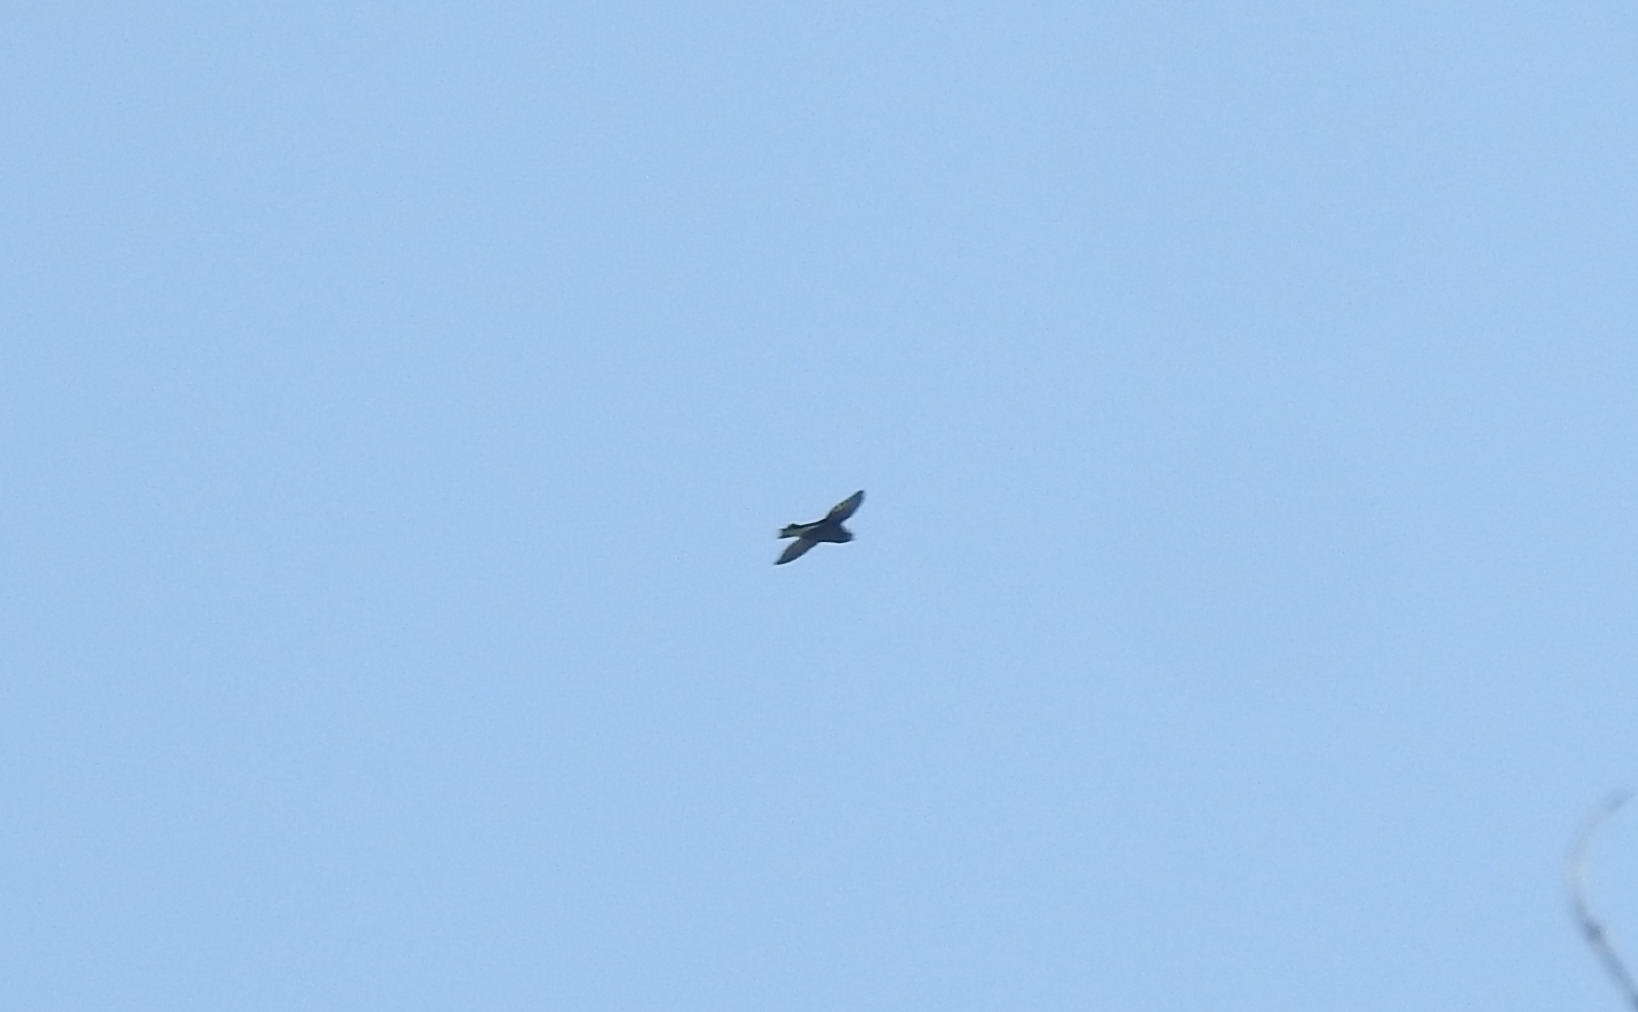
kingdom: Animalia
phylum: Chordata
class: Aves
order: Apodiformes
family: Apodidae
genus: Hirundapus
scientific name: Hirundapus giganteus
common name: Brown-backed needletail
